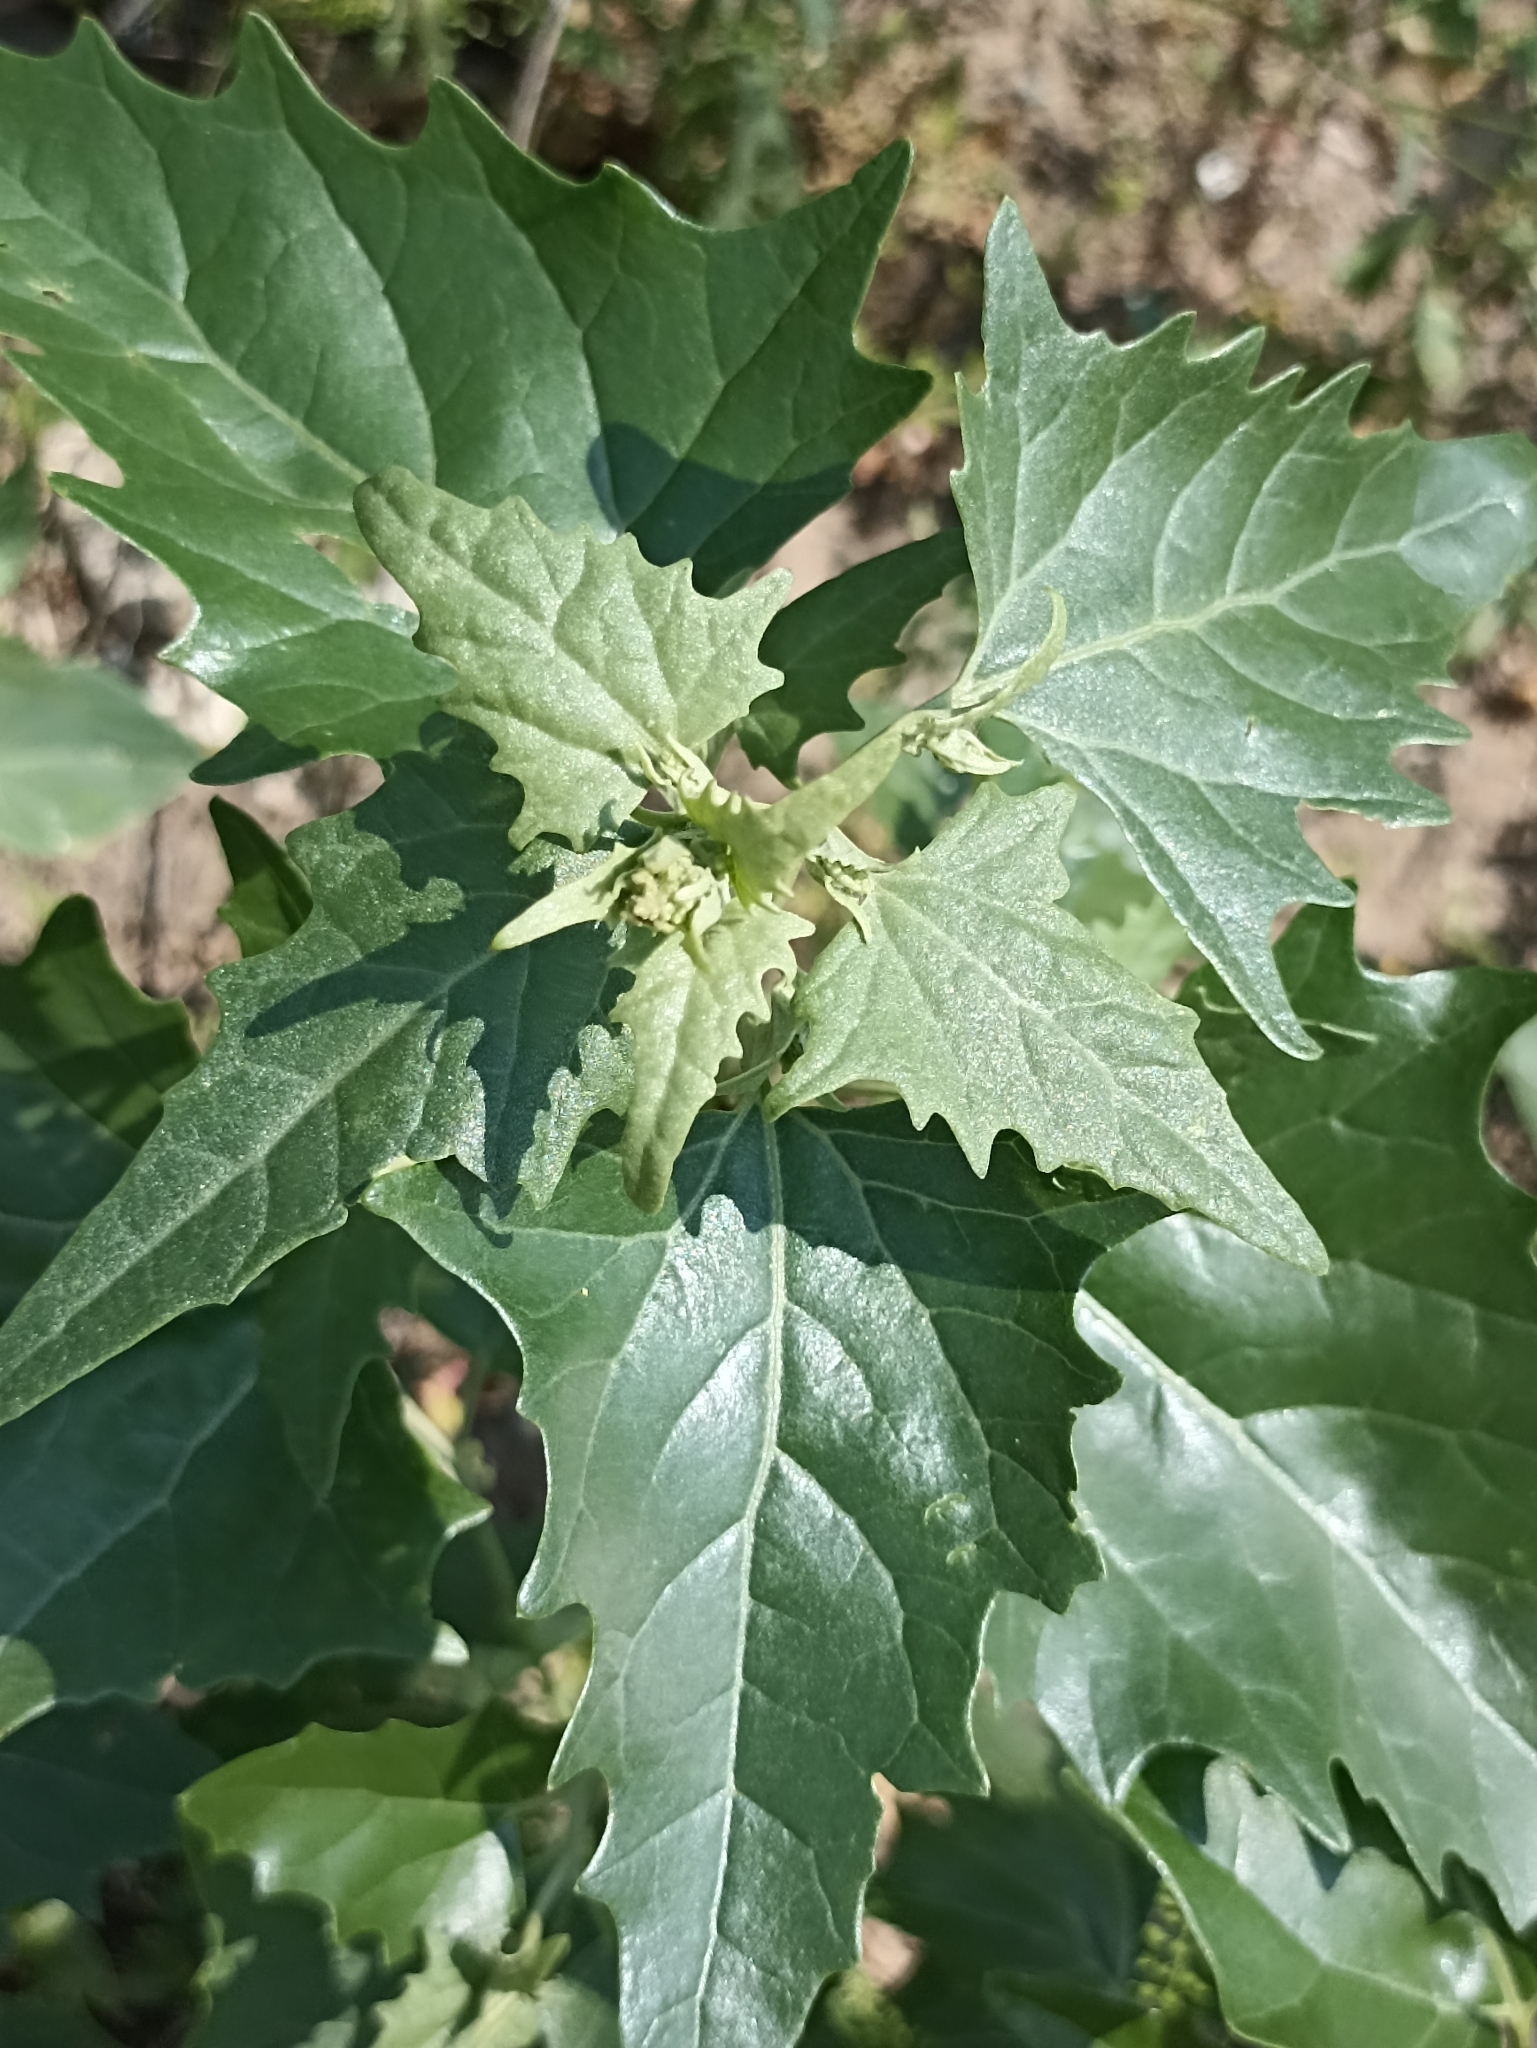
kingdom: Plantae
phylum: Tracheophyta
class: Magnoliopsida
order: Caryophyllales
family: Amaranthaceae
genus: Atriplex
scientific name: Atriplex sagittata
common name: Purple orache
